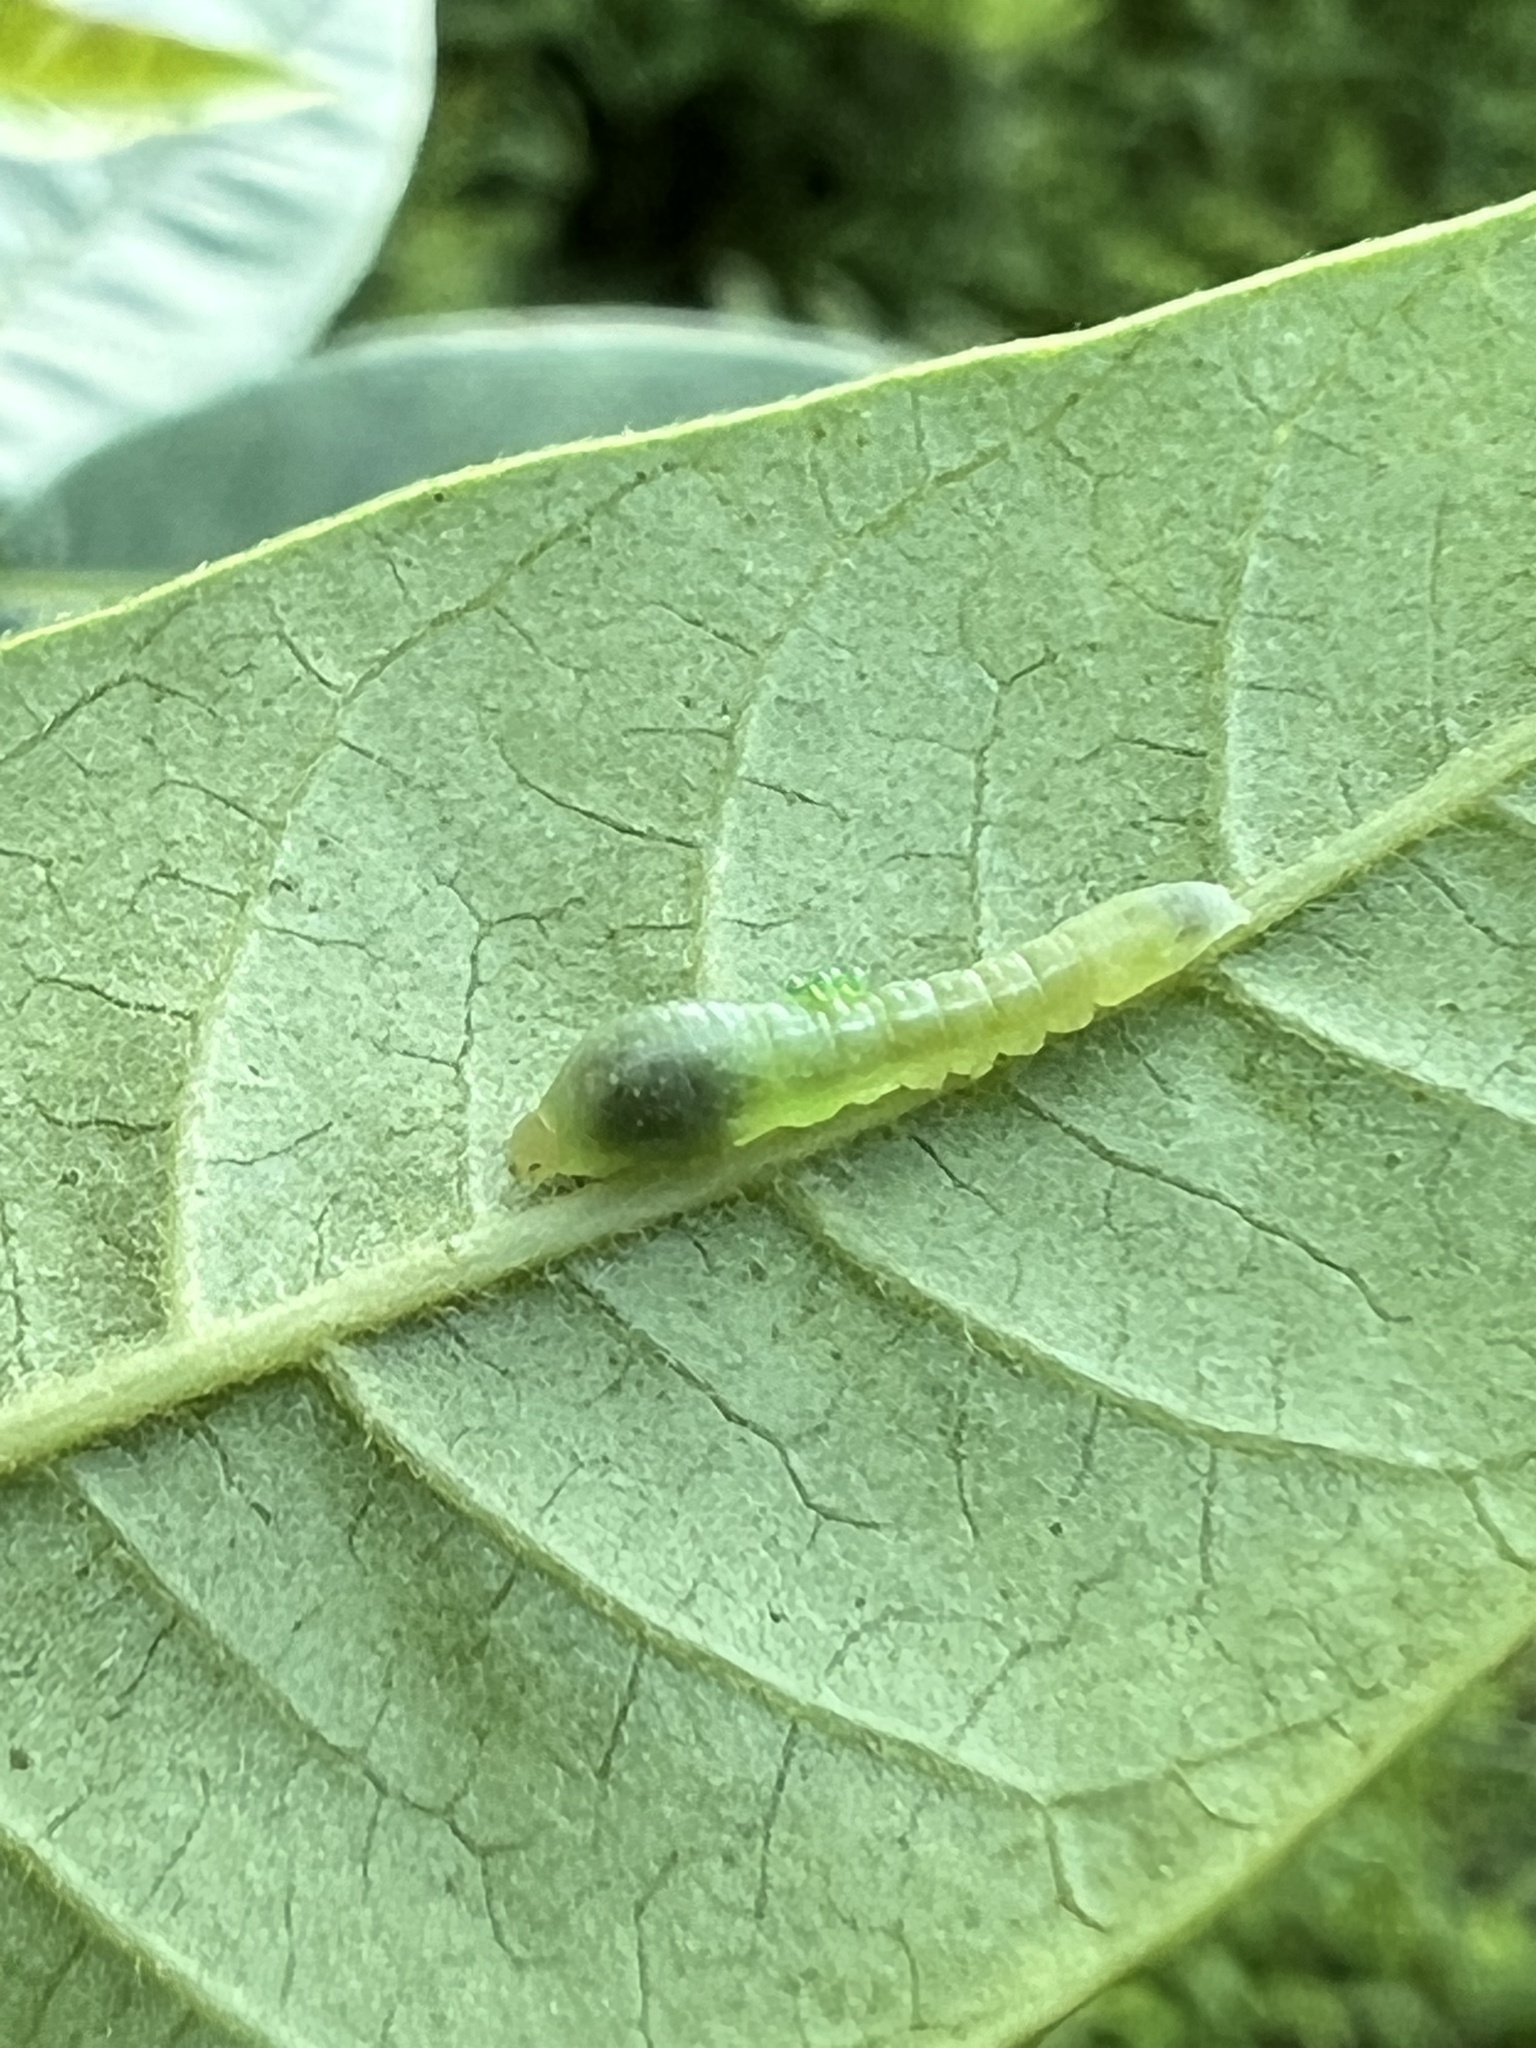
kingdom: Animalia
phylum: Arthropoda
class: Insecta
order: Lepidoptera
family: Geometridae
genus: Epimecis
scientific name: Epimecis hortaria
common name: Tulip-tree beauty
